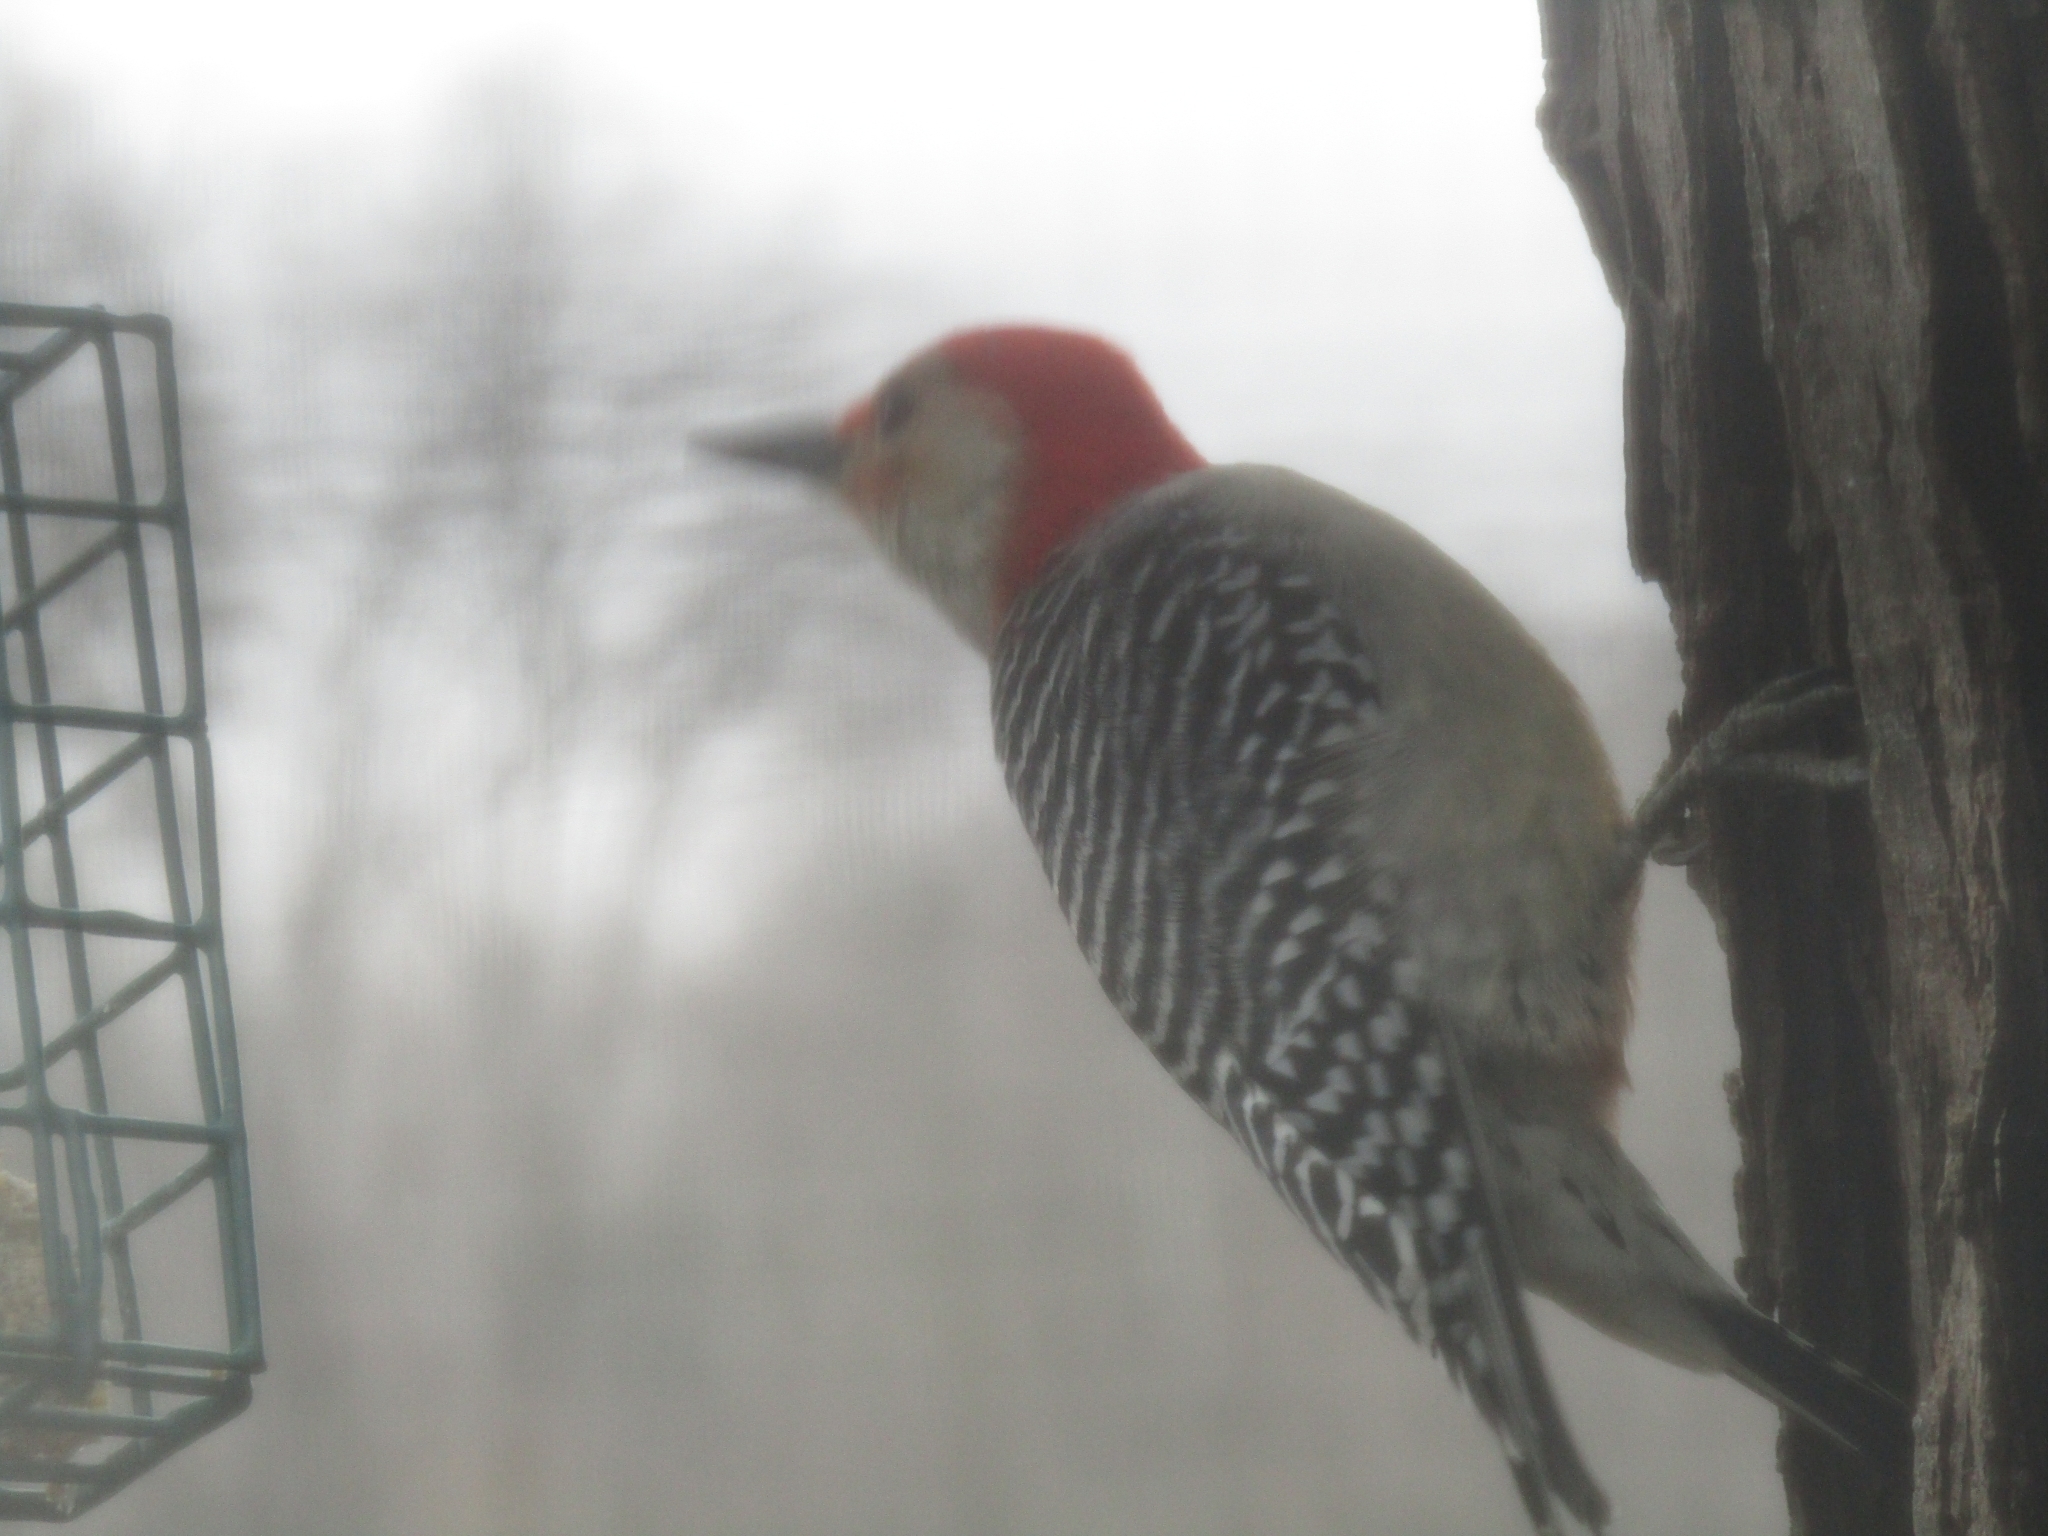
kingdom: Animalia
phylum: Chordata
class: Aves
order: Piciformes
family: Picidae
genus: Melanerpes
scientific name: Melanerpes carolinus
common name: Red-bellied woodpecker
